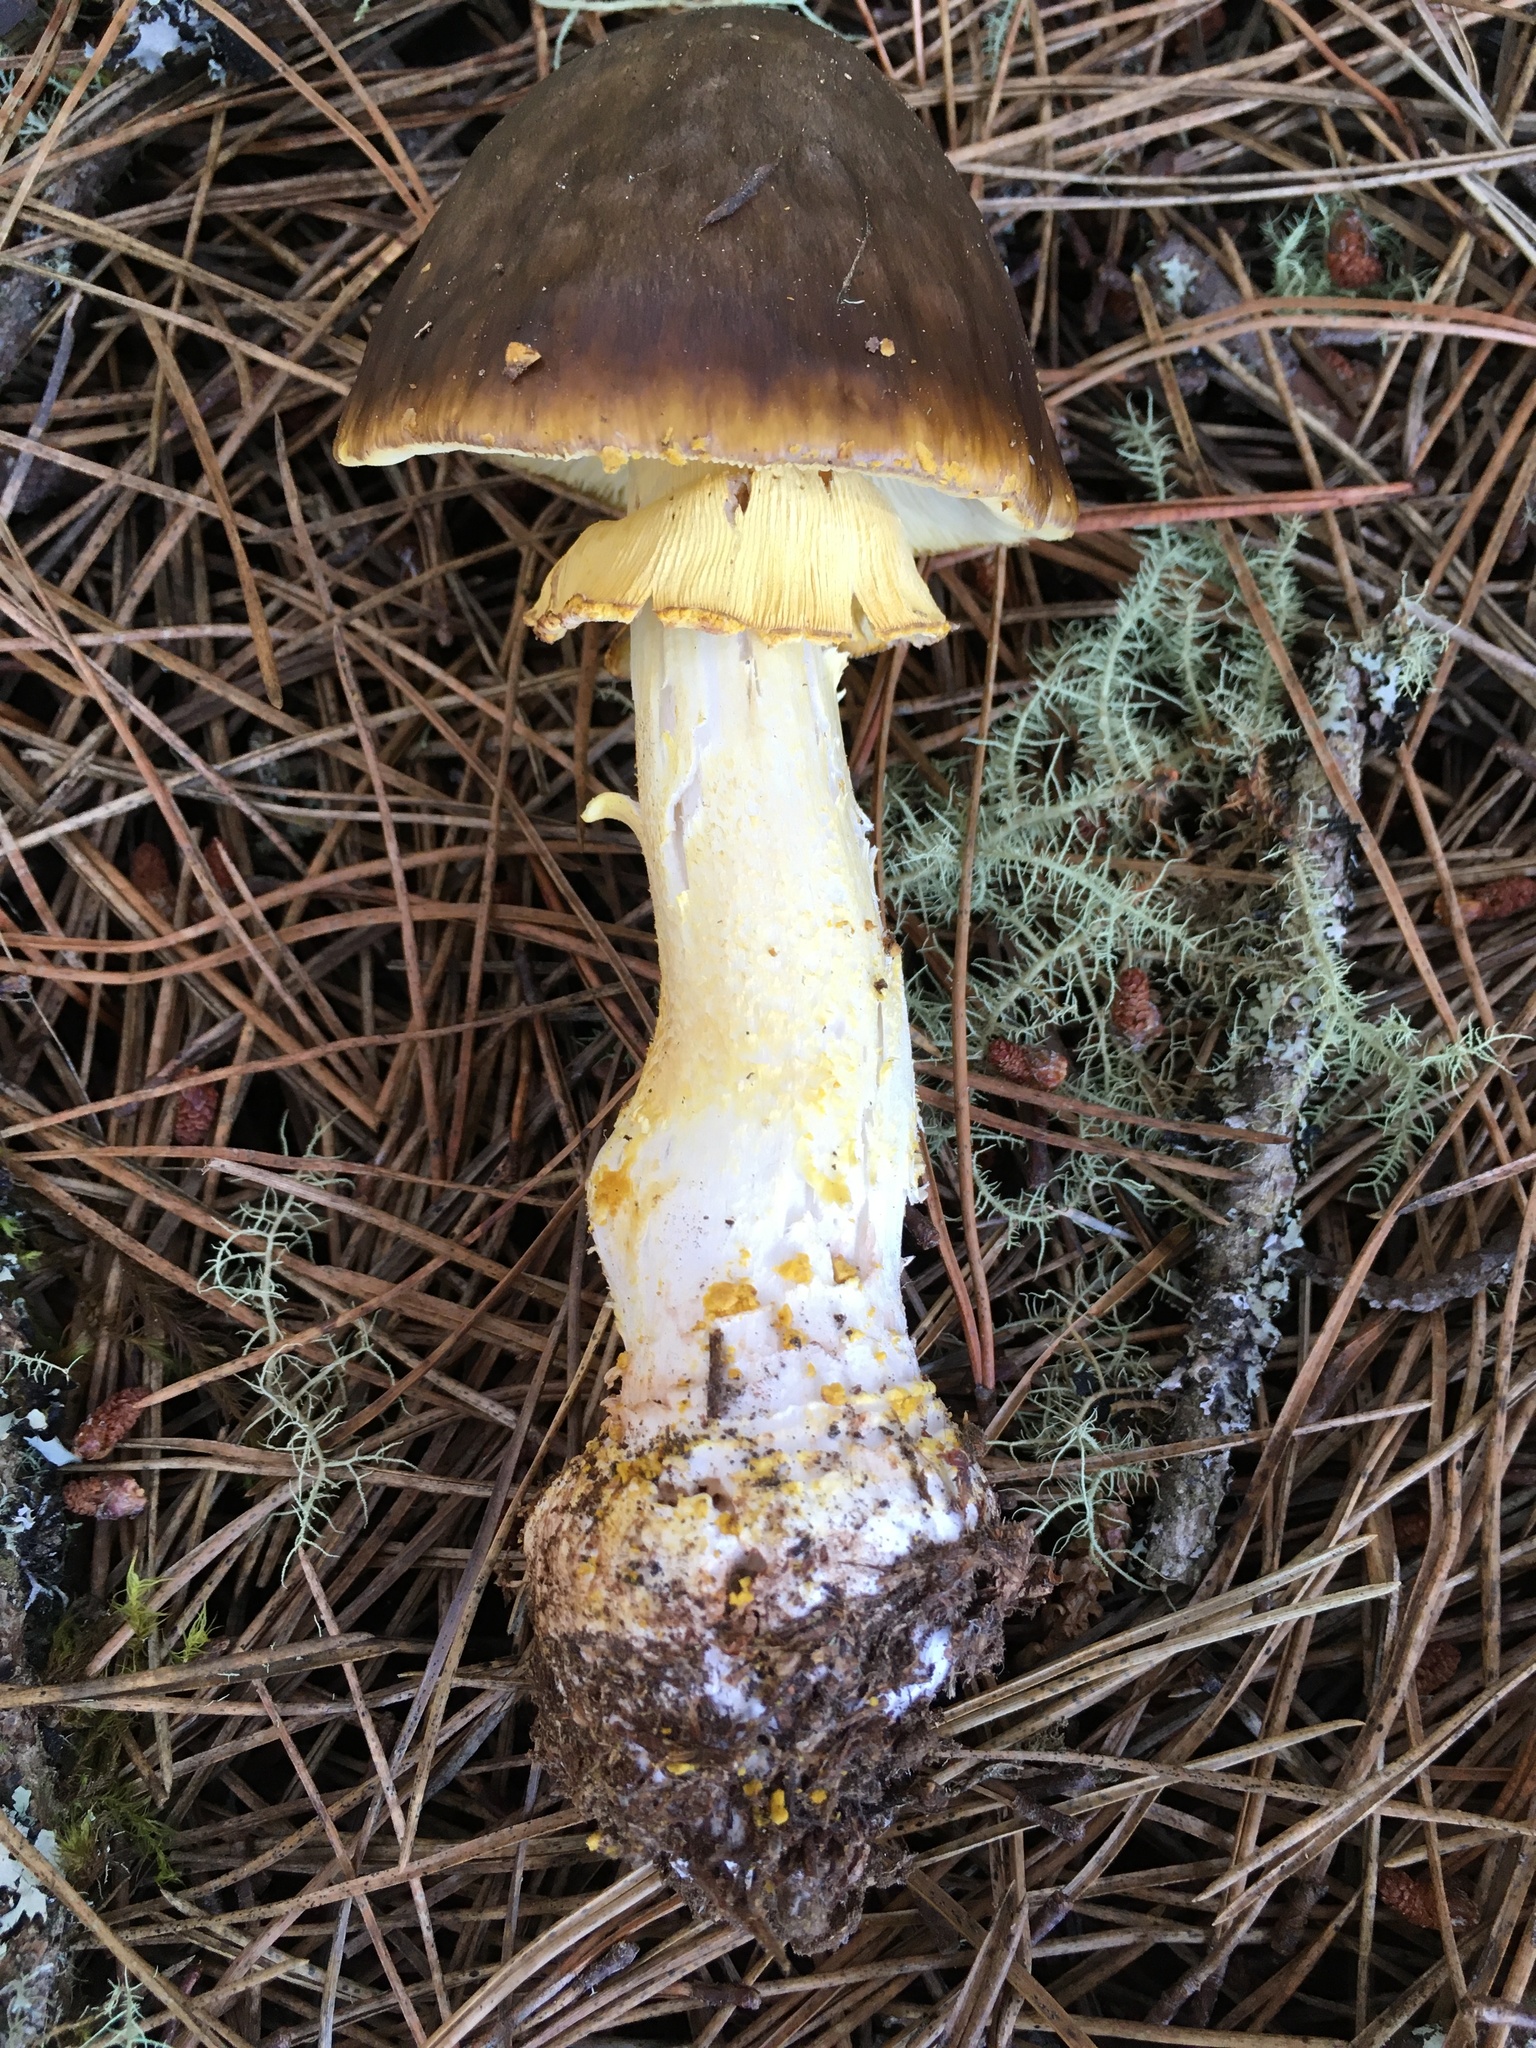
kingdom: Fungi
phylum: Basidiomycota
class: Agaricomycetes
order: Agaricales
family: Amanitaceae
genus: Amanita
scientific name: Amanita augusta
